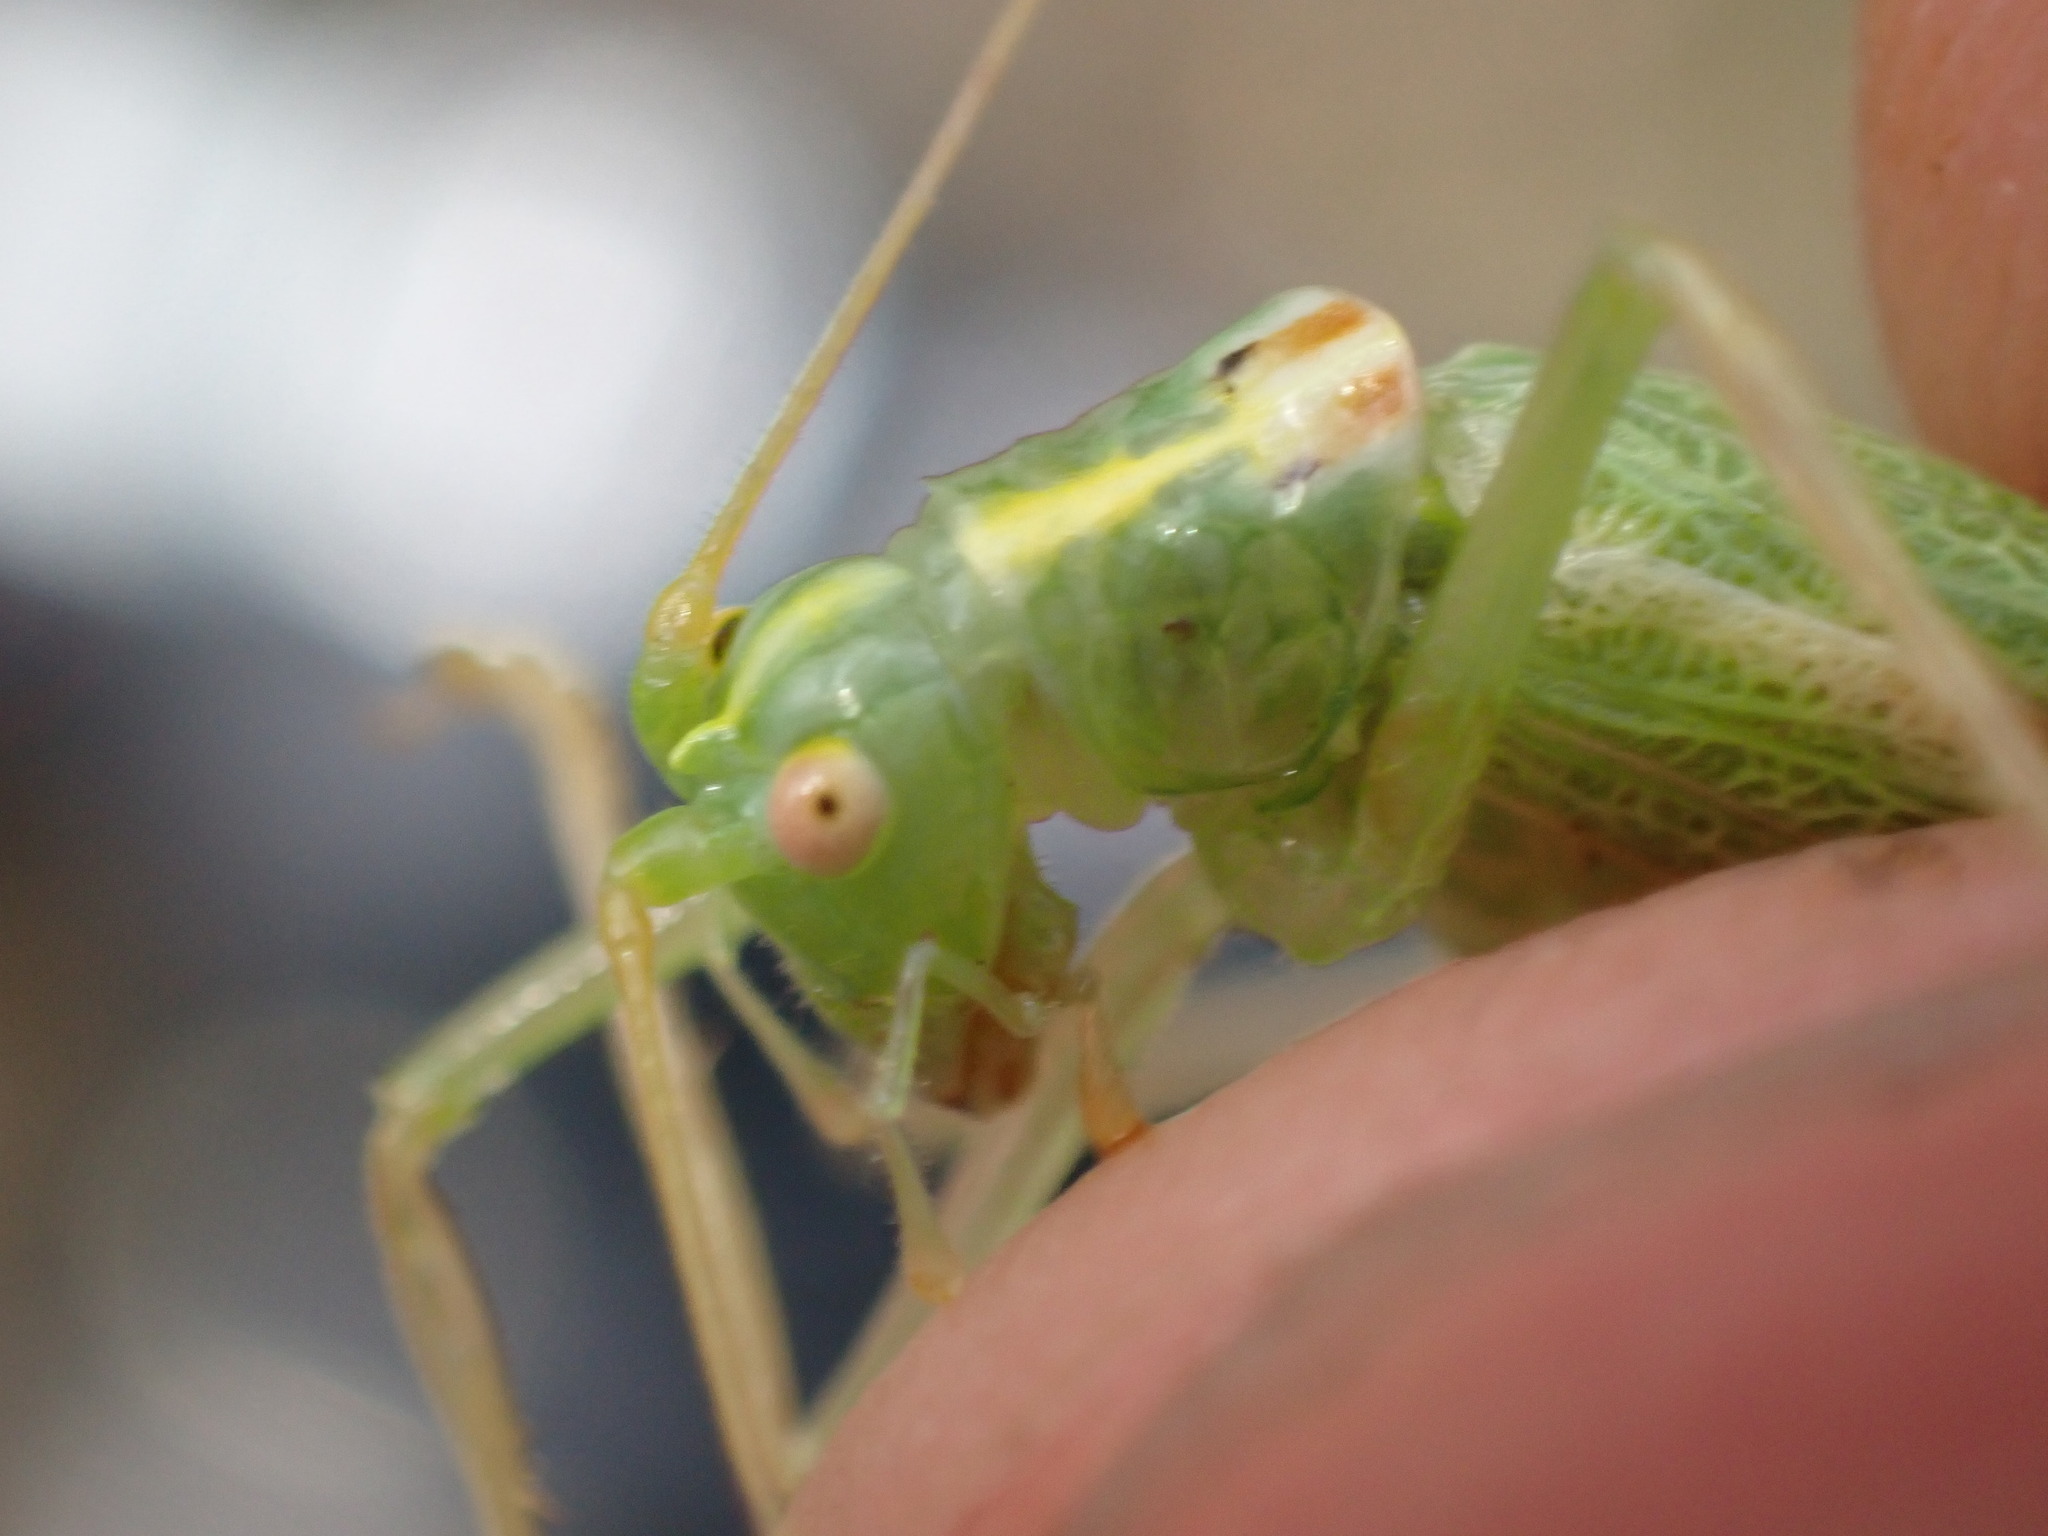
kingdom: Animalia
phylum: Arthropoda
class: Insecta
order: Orthoptera
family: Tettigoniidae
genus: Meconema
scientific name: Meconema thalassinum
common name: Oak bush-cricket
